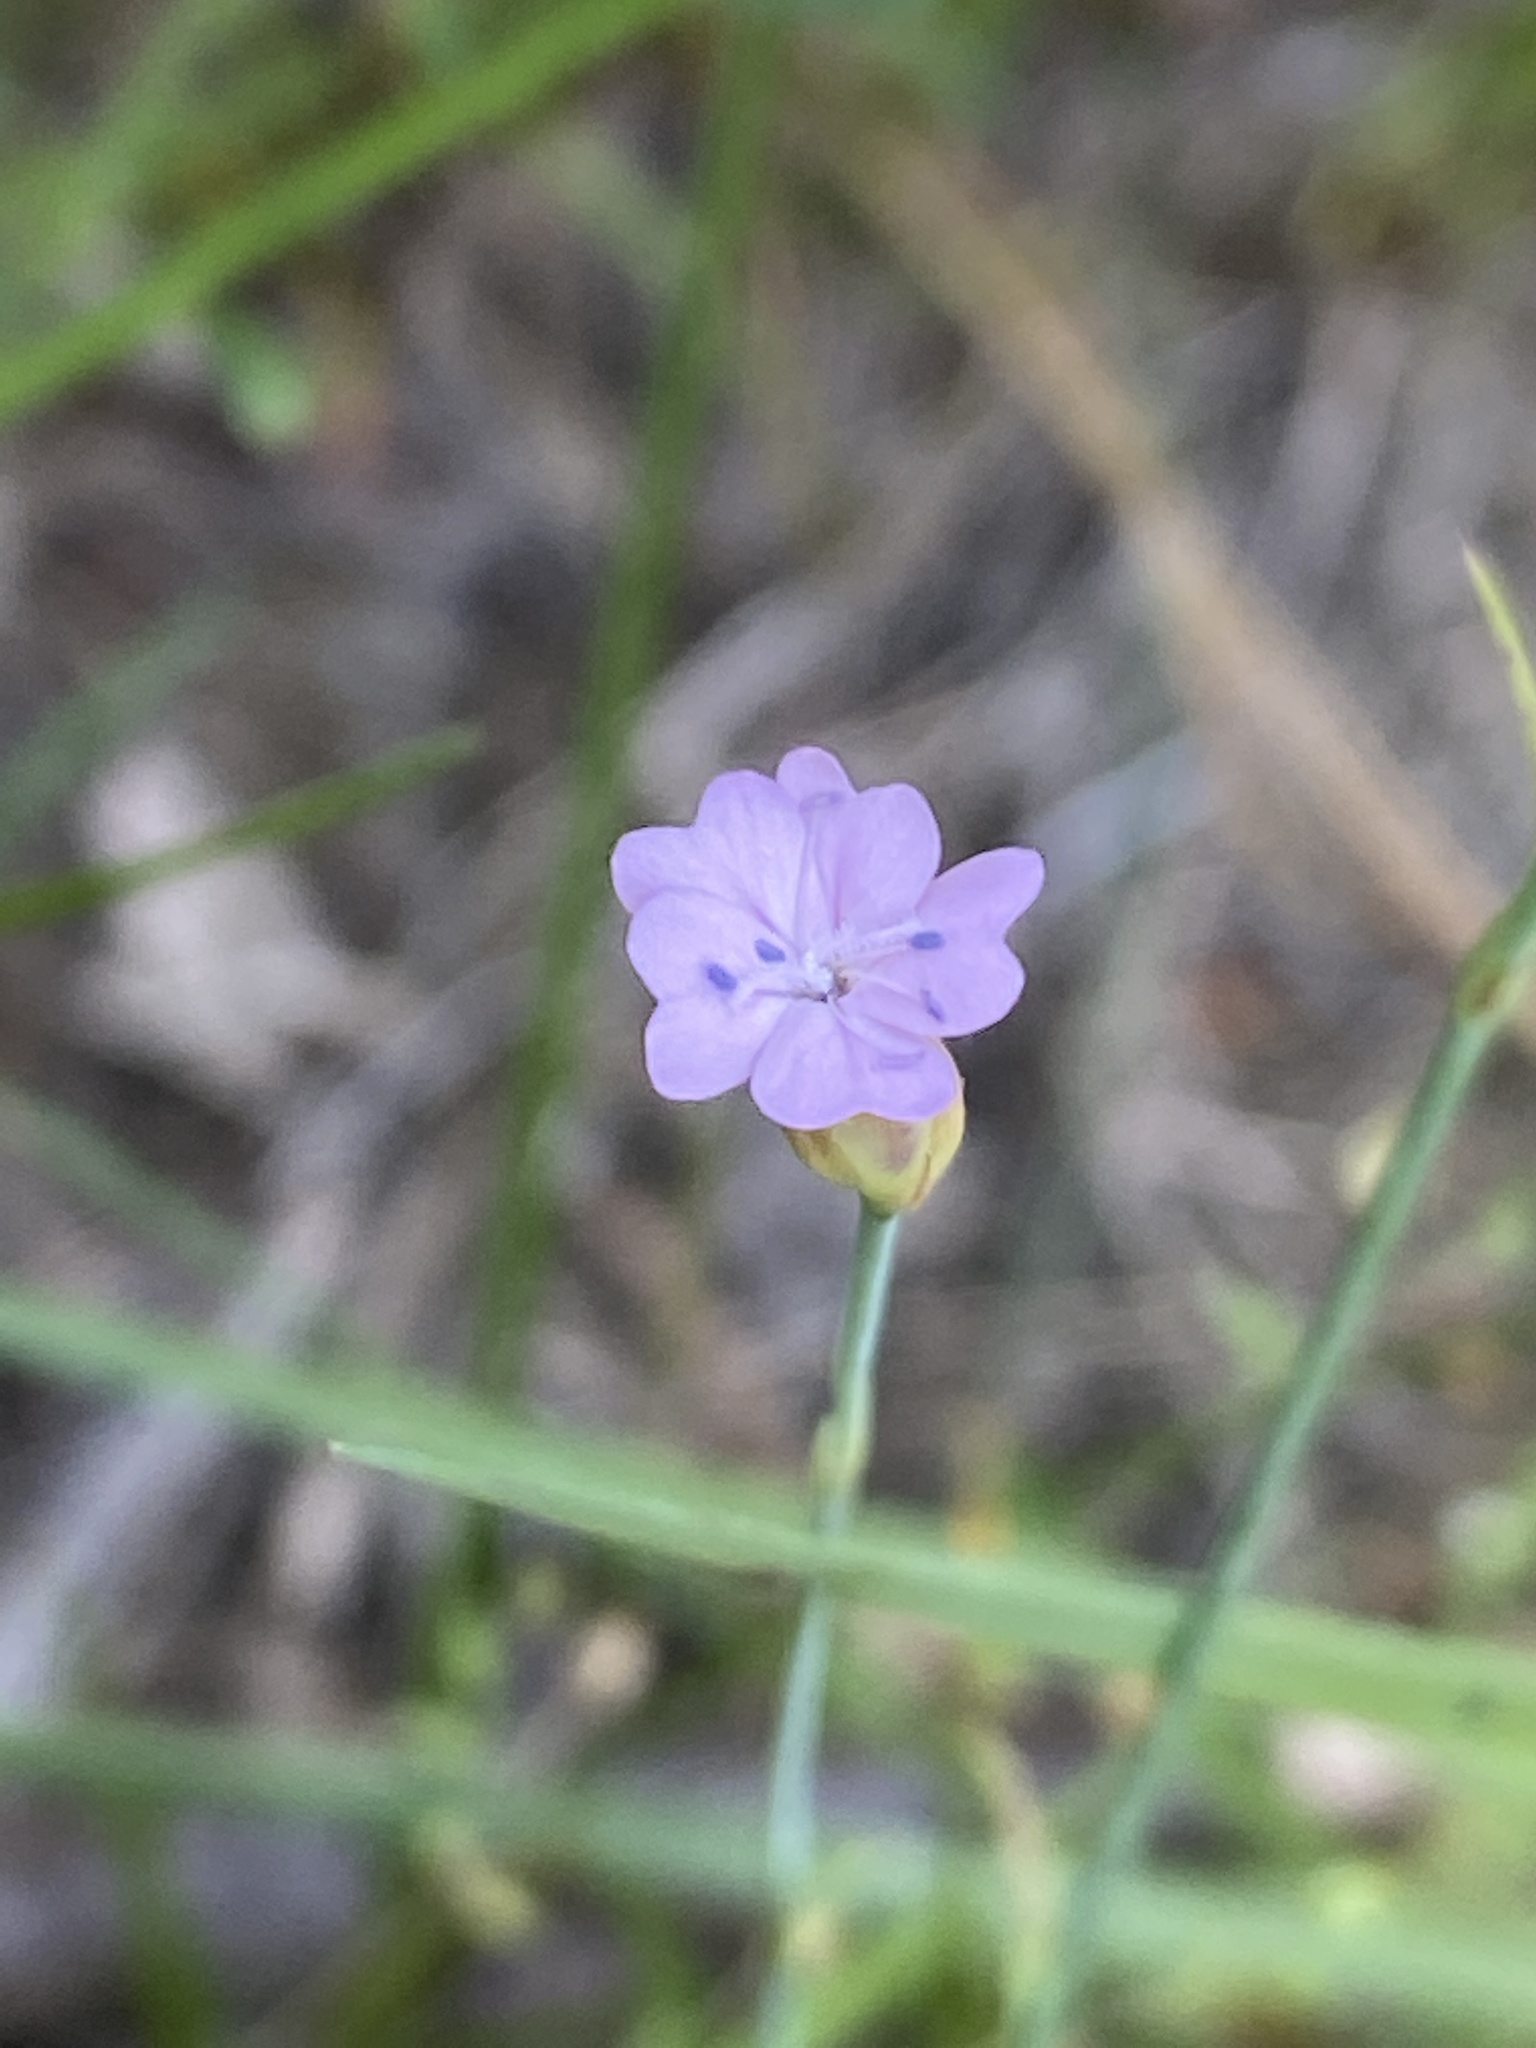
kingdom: Plantae
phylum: Tracheophyta
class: Magnoliopsida
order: Caryophyllales
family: Caryophyllaceae
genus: Petrorhagia
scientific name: Petrorhagia prolifera
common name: Proliferous pink
